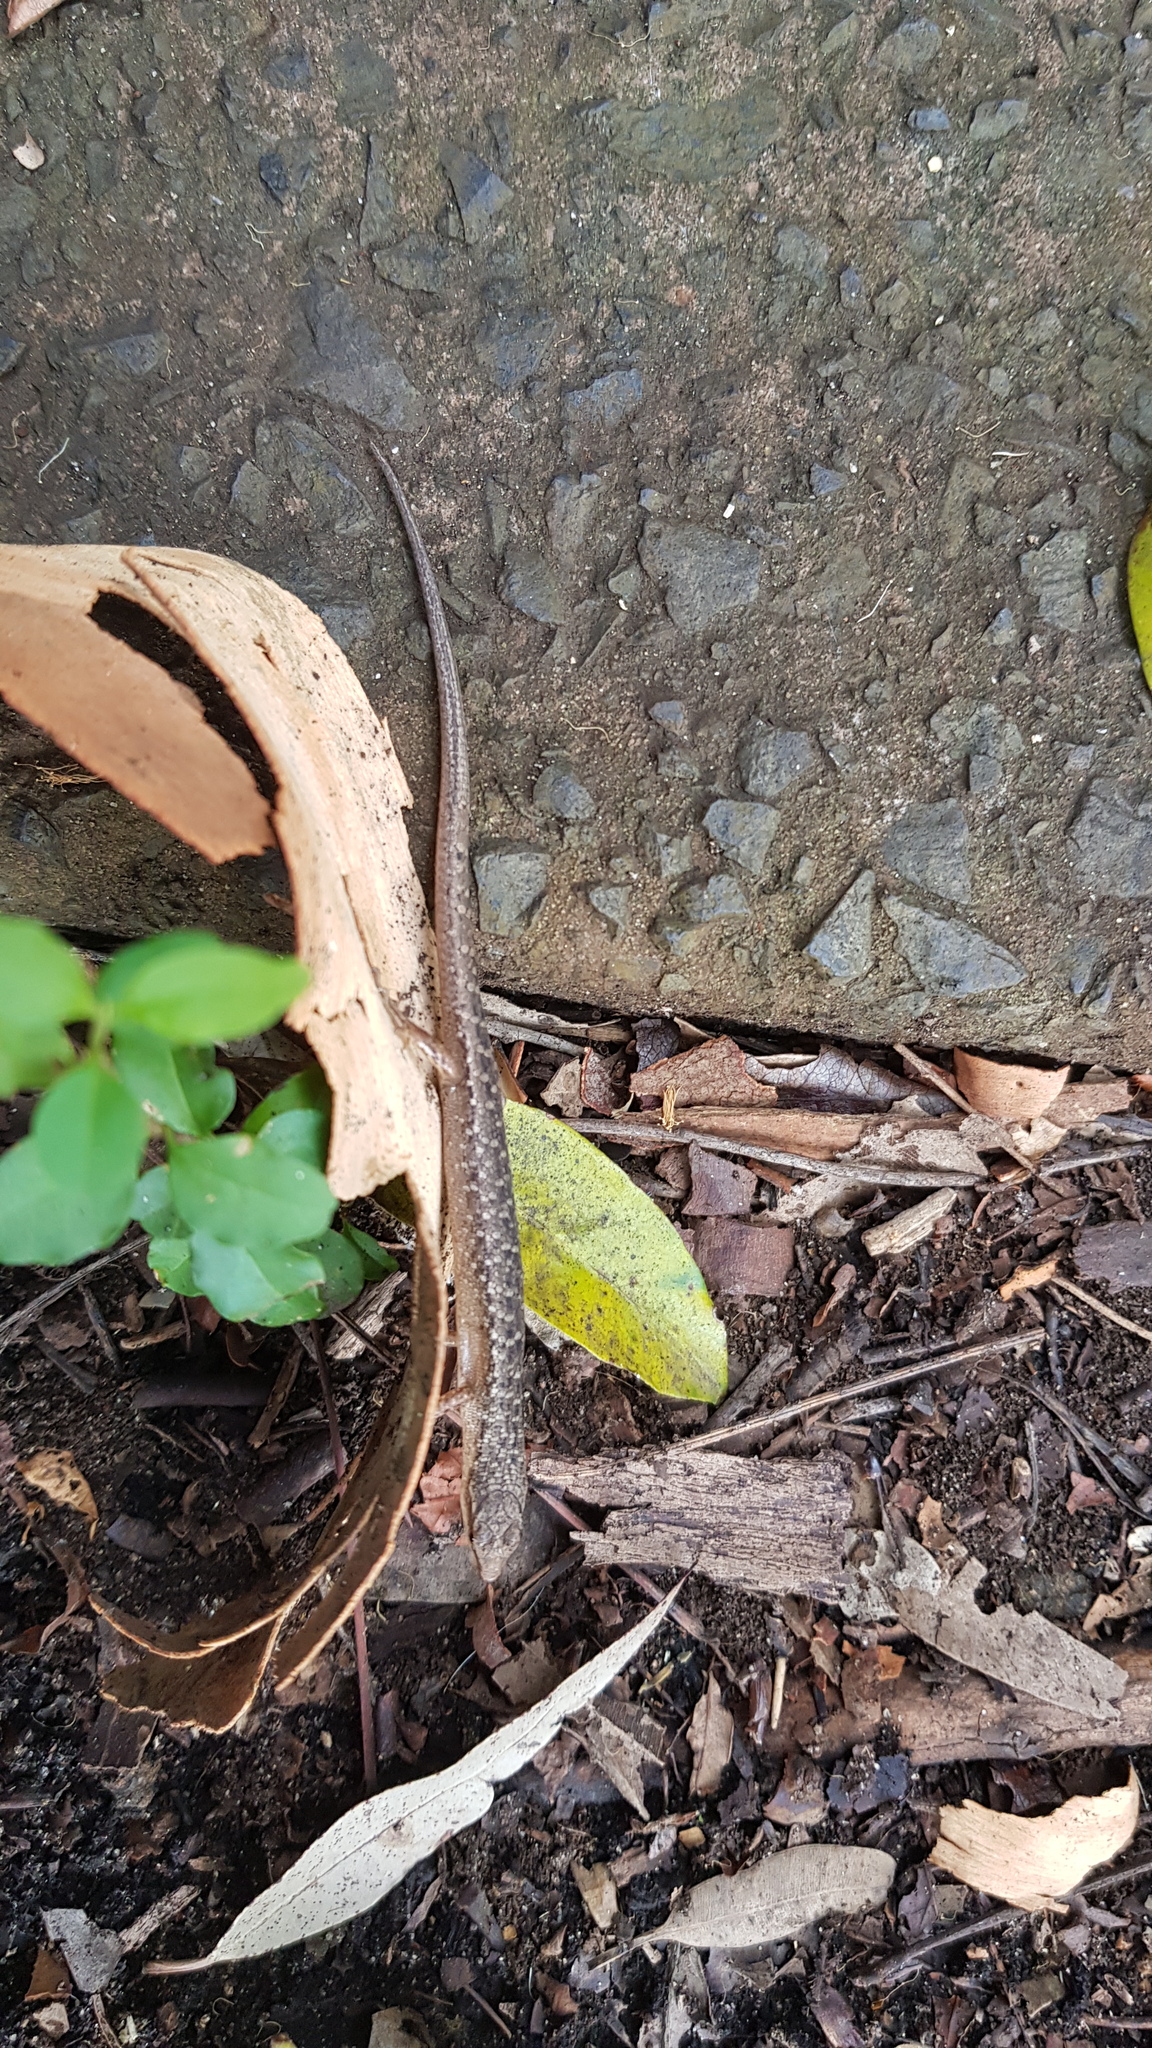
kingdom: Animalia
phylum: Chordata
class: Squamata
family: Scincidae
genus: Saproscincus
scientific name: Saproscincus spectabilis
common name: Gully shadeskink
